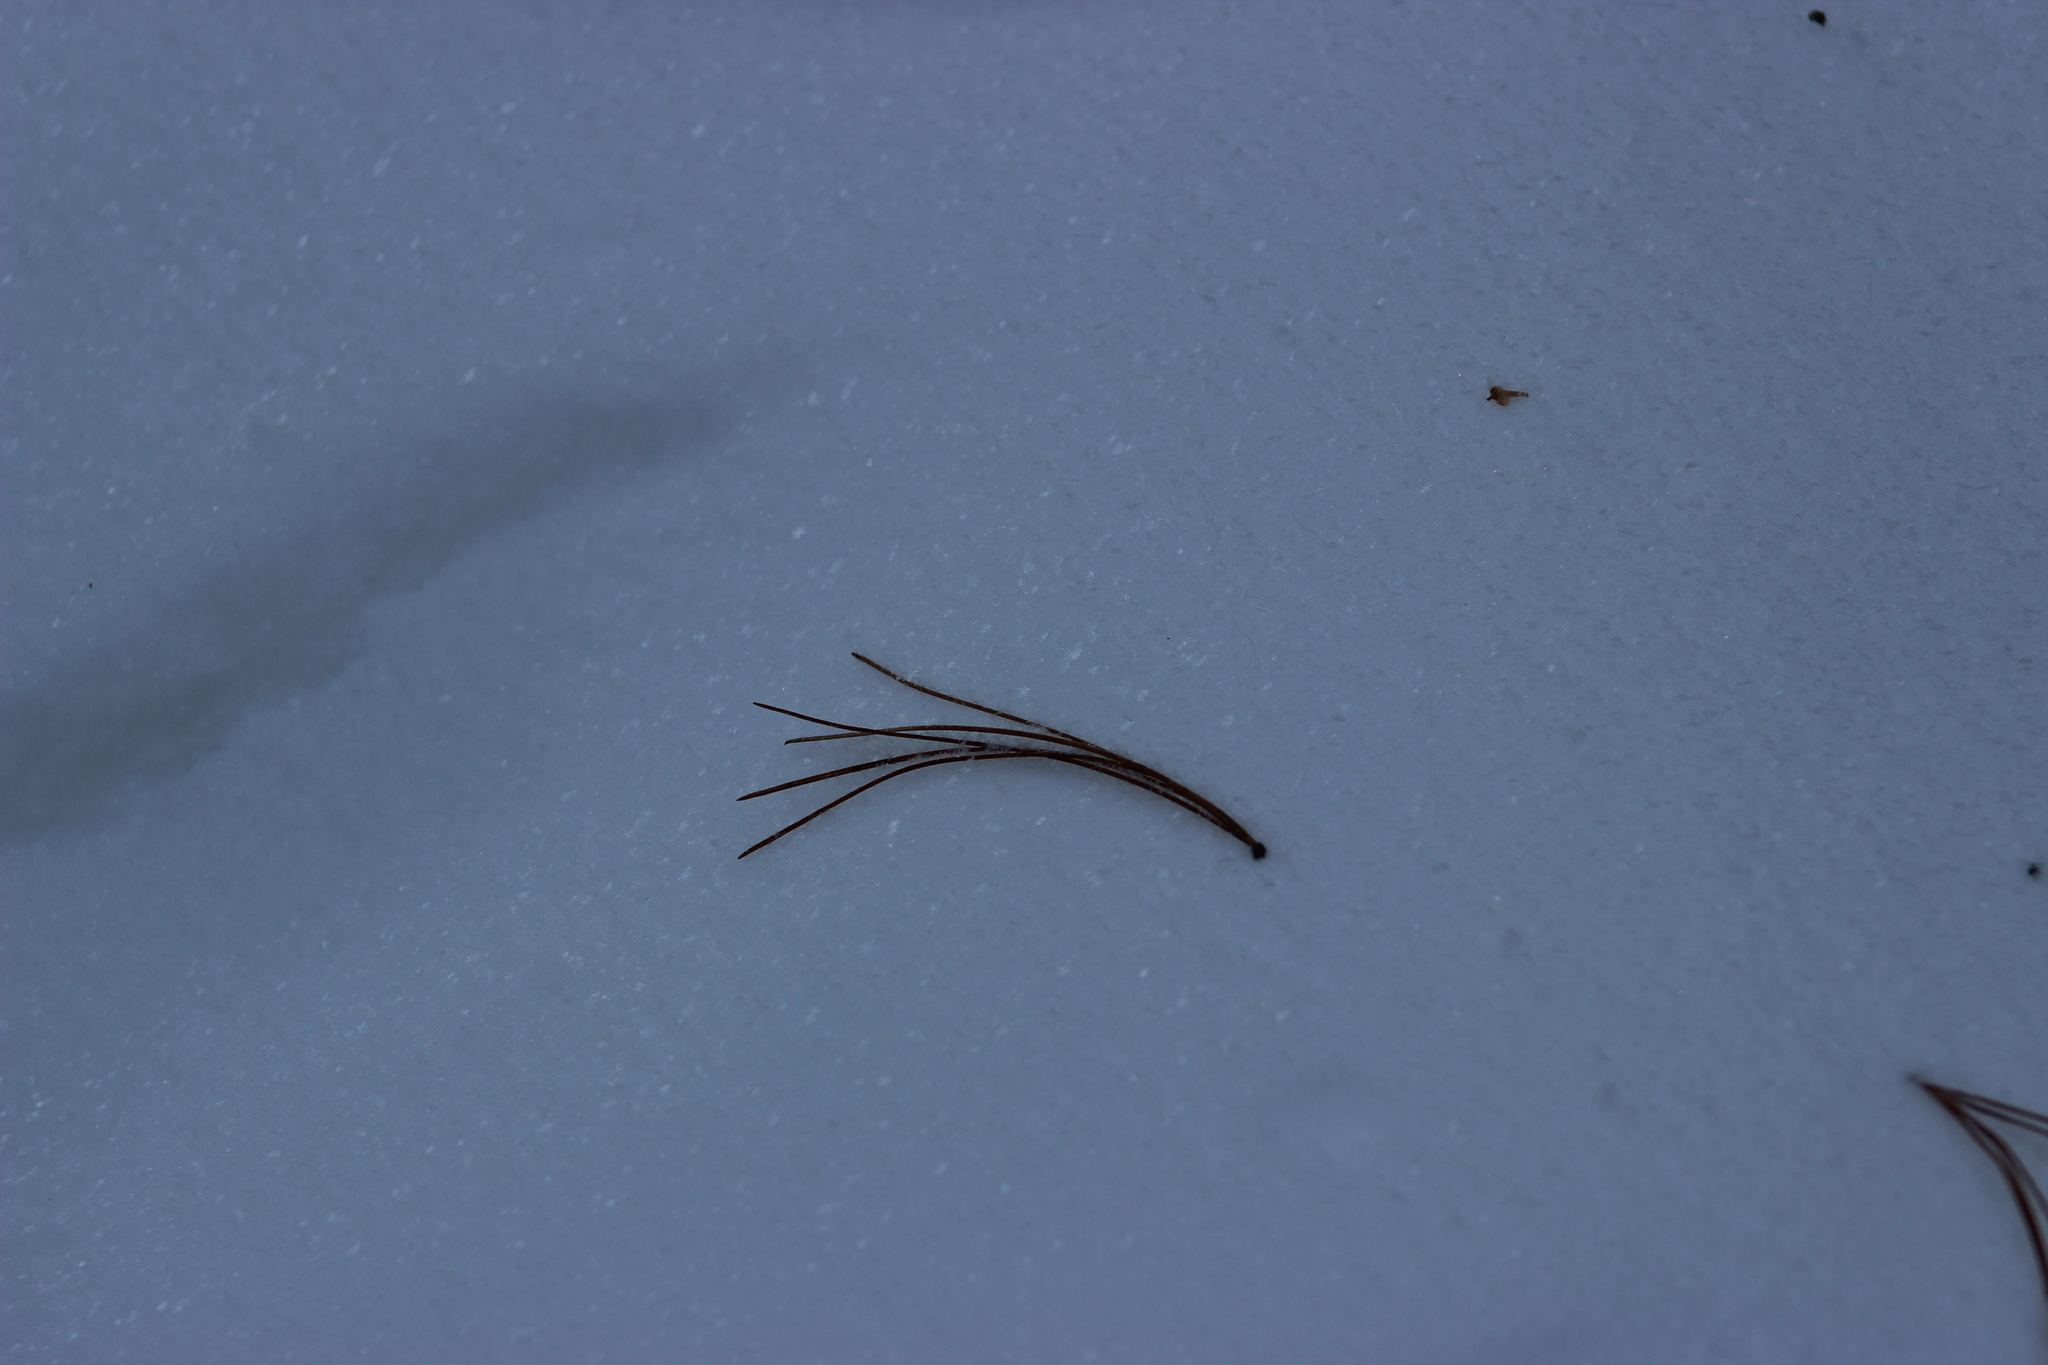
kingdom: Plantae
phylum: Tracheophyta
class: Pinopsida
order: Pinales
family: Pinaceae
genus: Pinus
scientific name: Pinus sibirica
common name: Siberian pine
